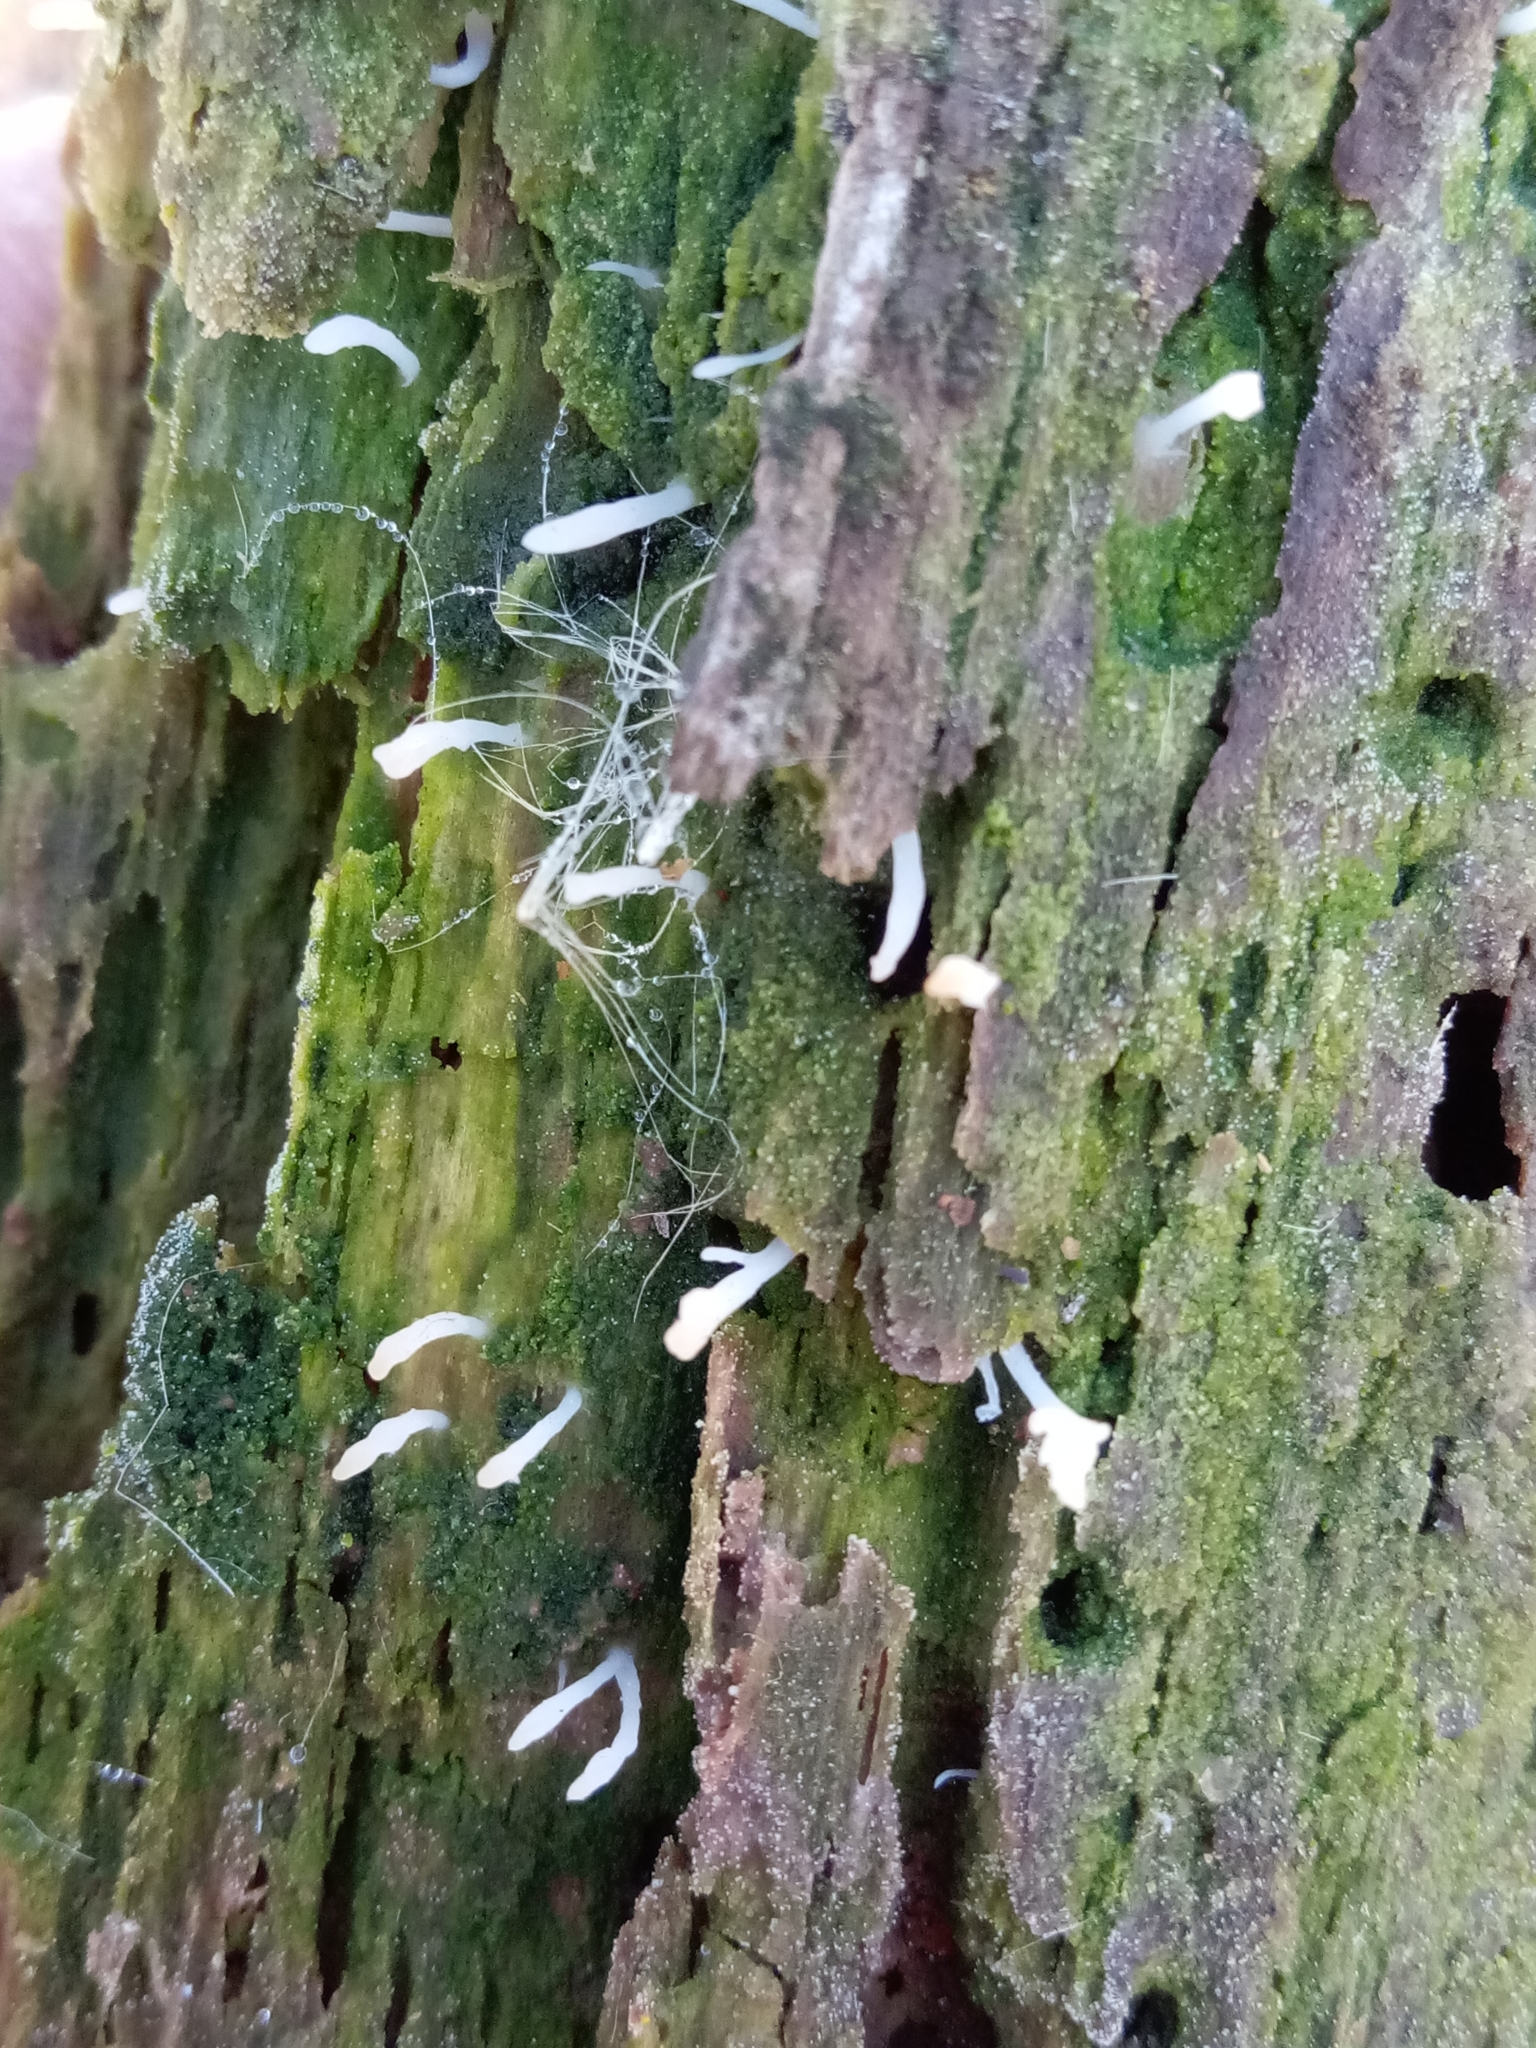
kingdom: Fungi
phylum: Basidiomycota
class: Agaricomycetes
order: Cantharellales
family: Hydnaceae
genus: Multiclavula
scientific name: Multiclavula mucida
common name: White green-algae coral
